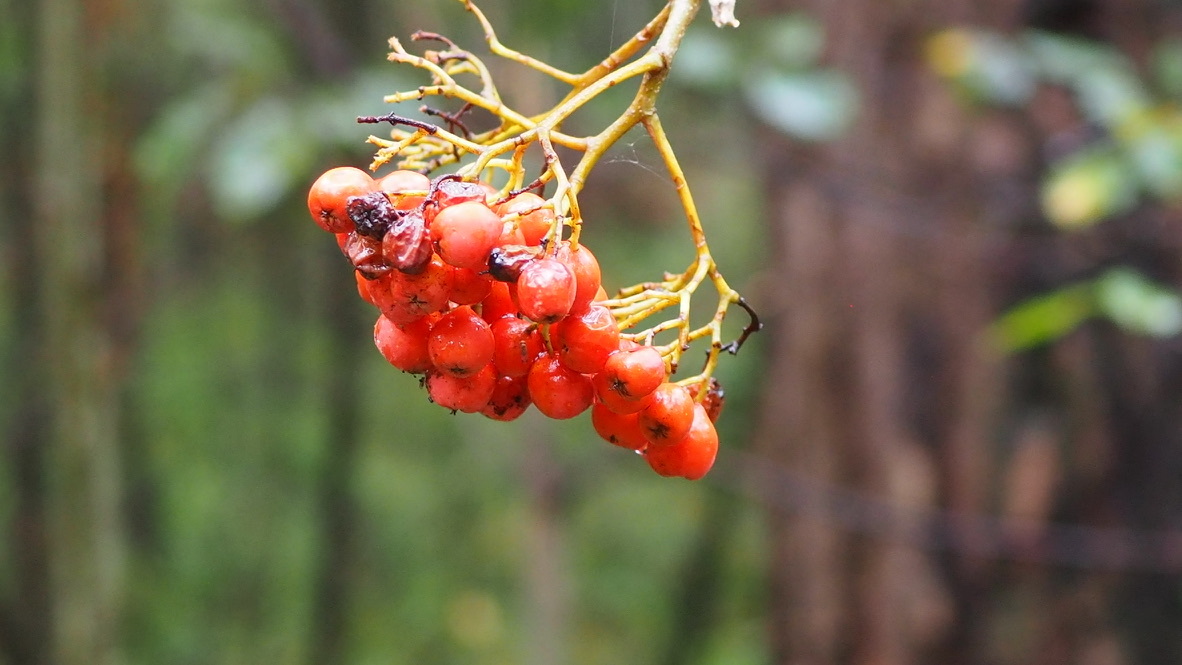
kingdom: Plantae
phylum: Tracheophyta
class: Magnoliopsida
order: Rosales
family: Rosaceae
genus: Sorbus
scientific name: Sorbus aucuparia
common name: Rowan
